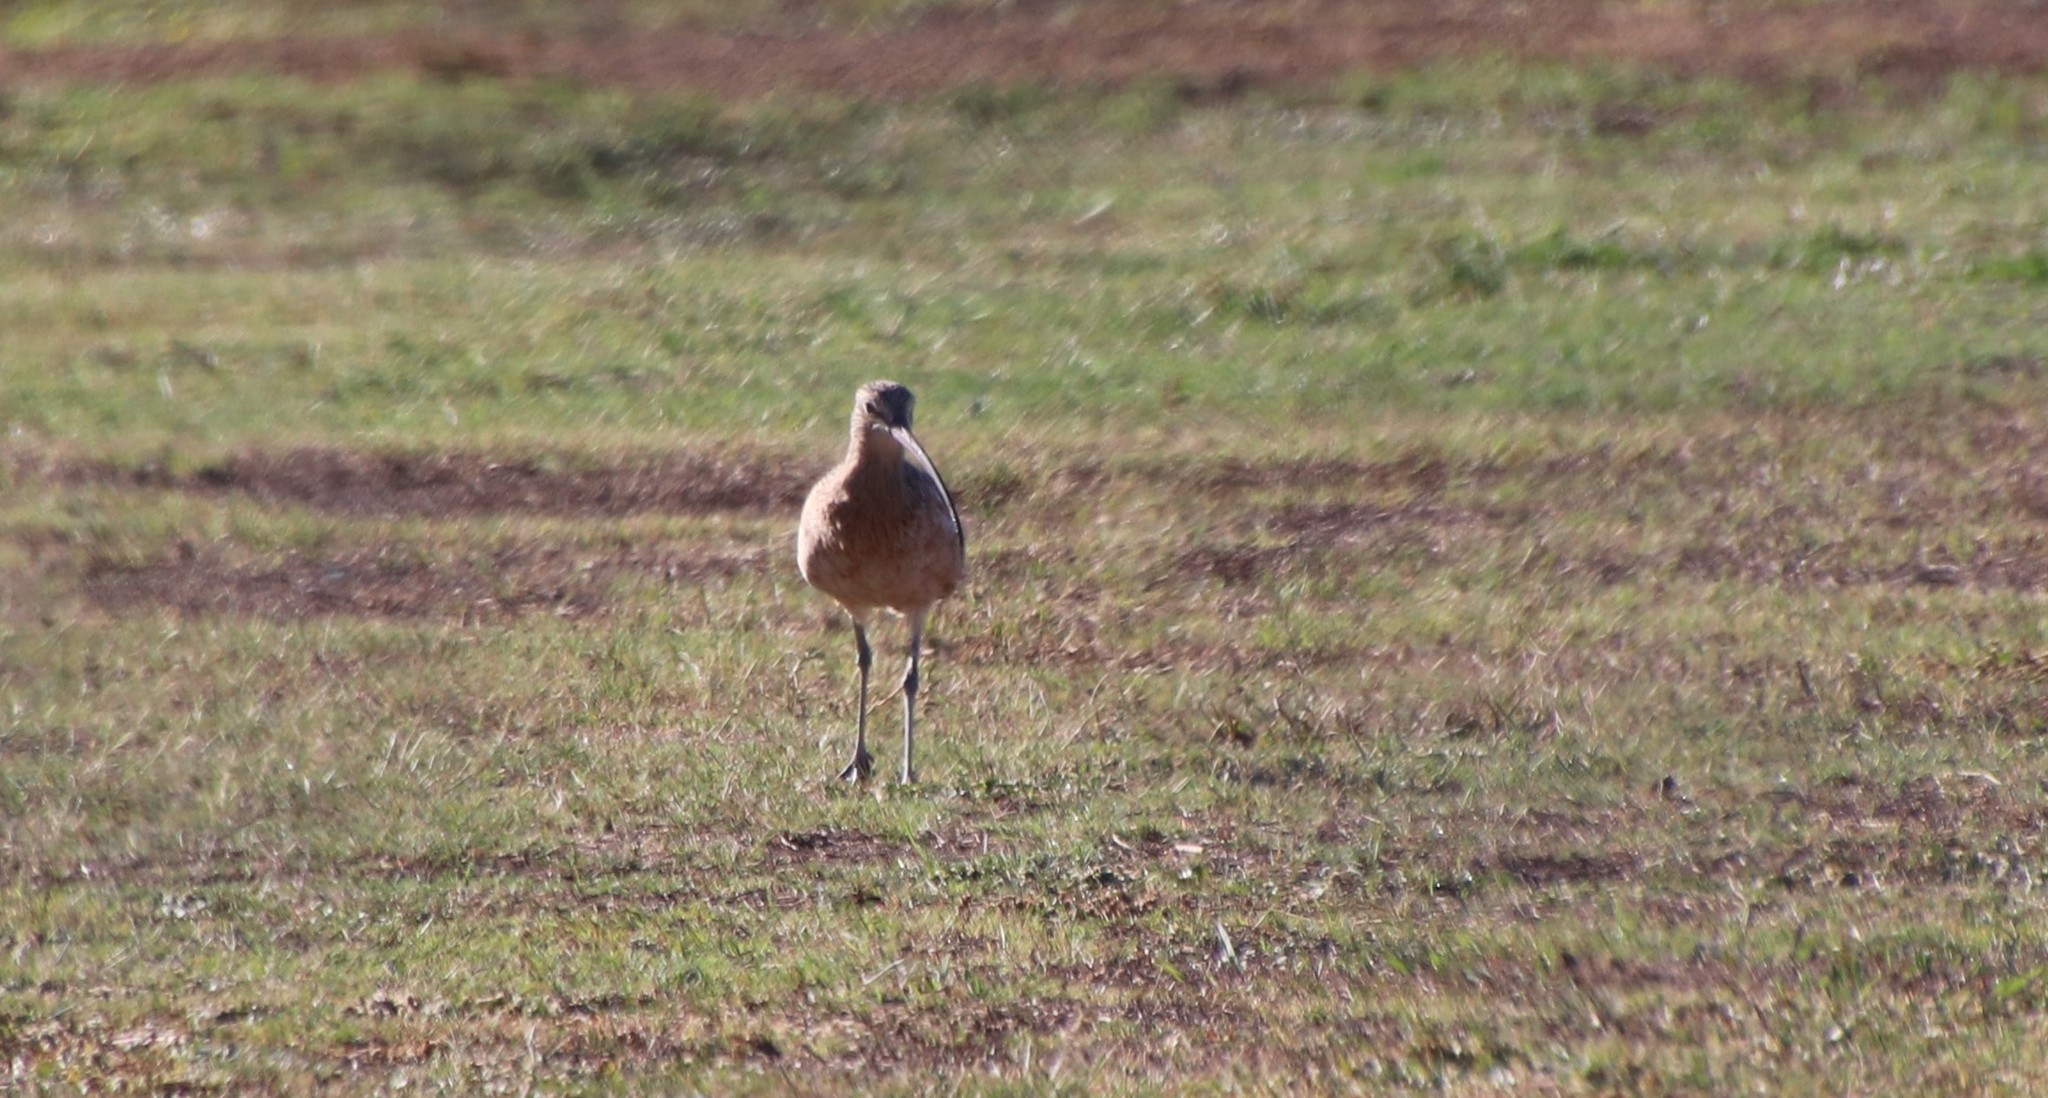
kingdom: Animalia
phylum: Chordata
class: Aves
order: Charadriiformes
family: Scolopacidae
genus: Numenius
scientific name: Numenius americanus
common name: Long-billed curlew
